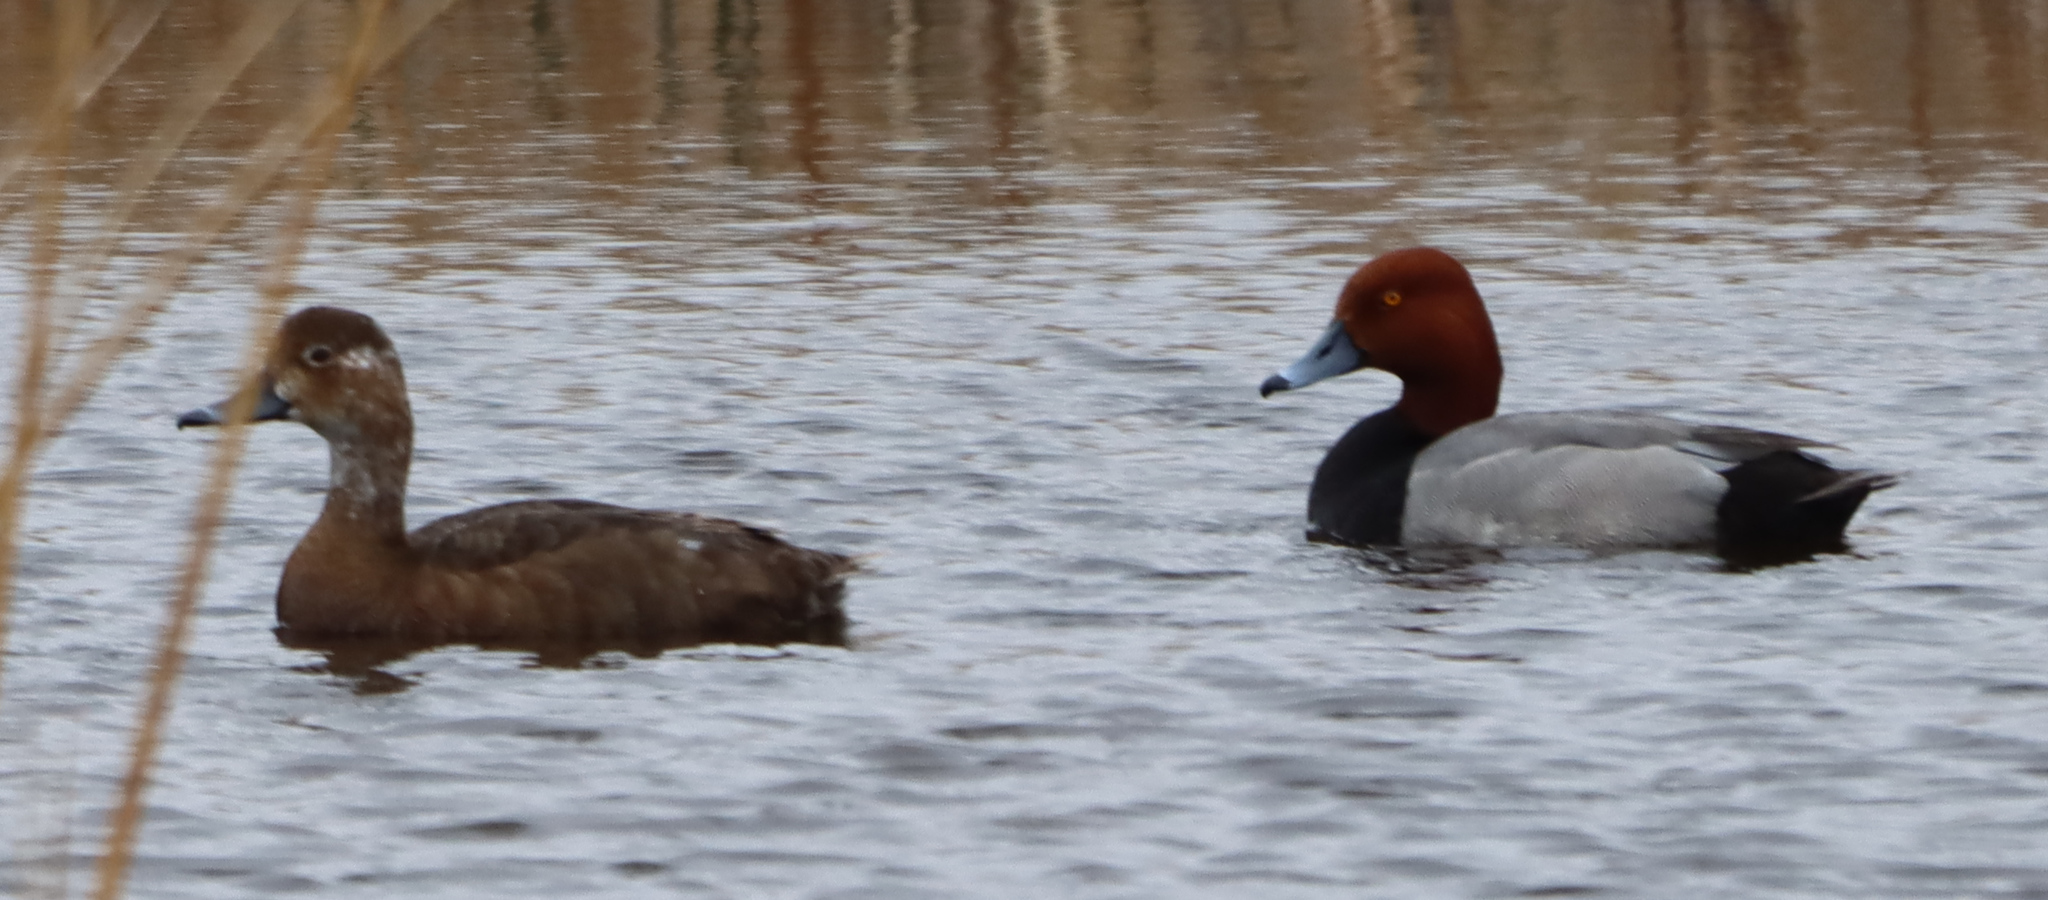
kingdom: Animalia
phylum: Chordata
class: Aves
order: Anseriformes
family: Anatidae
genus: Aythya
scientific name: Aythya americana
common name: Redhead
